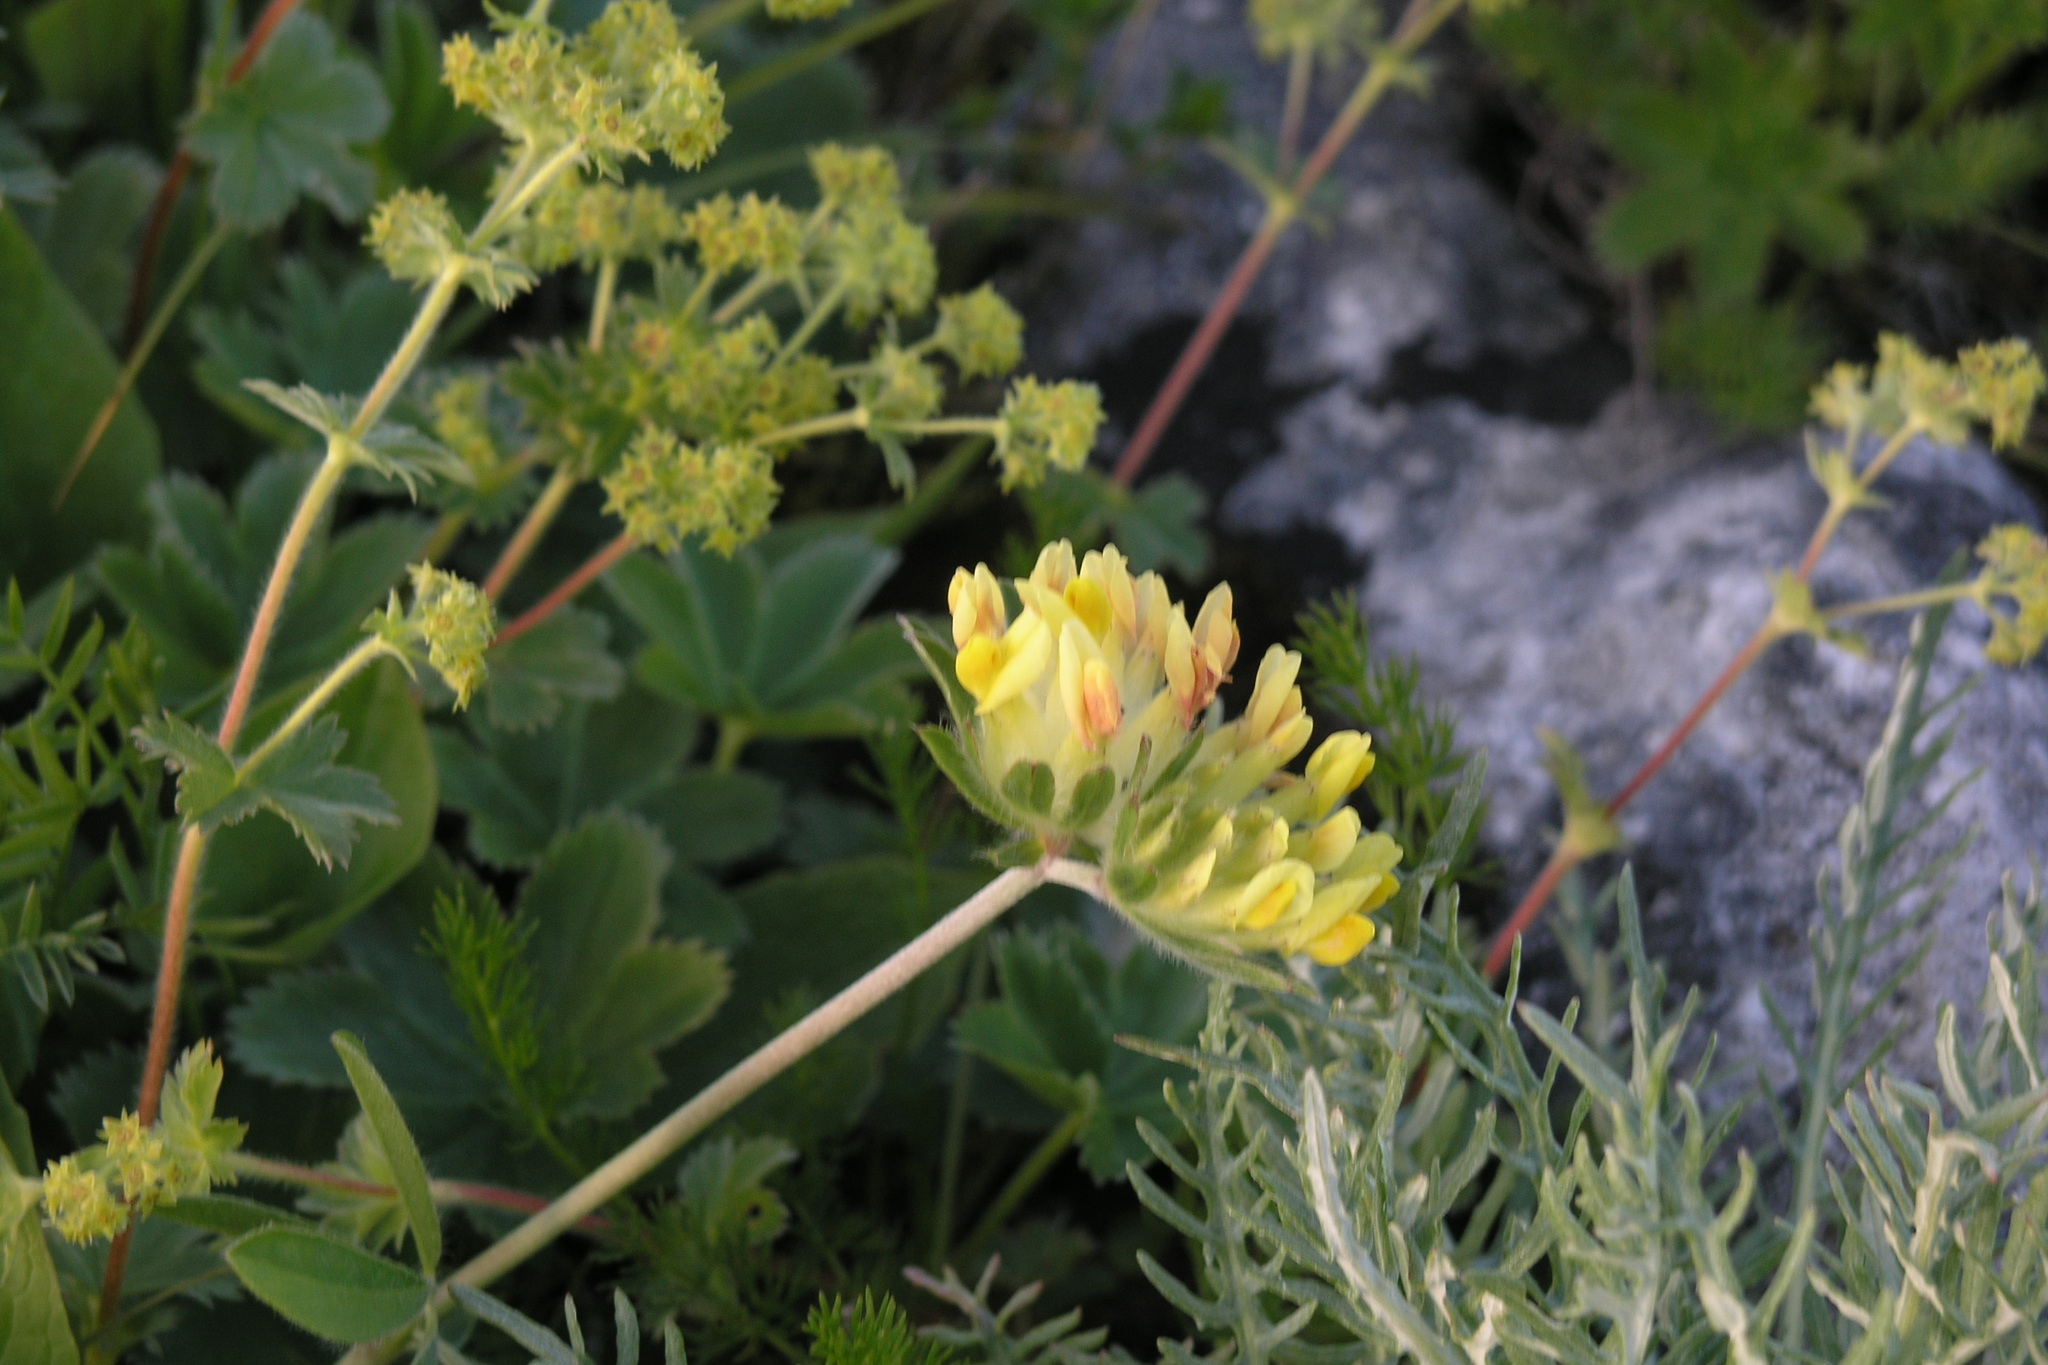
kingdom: Plantae
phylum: Tracheophyta
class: Magnoliopsida
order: Fabales
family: Fabaceae
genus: Anthyllis
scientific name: Anthyllis vulneraria
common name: Kidney vetch
